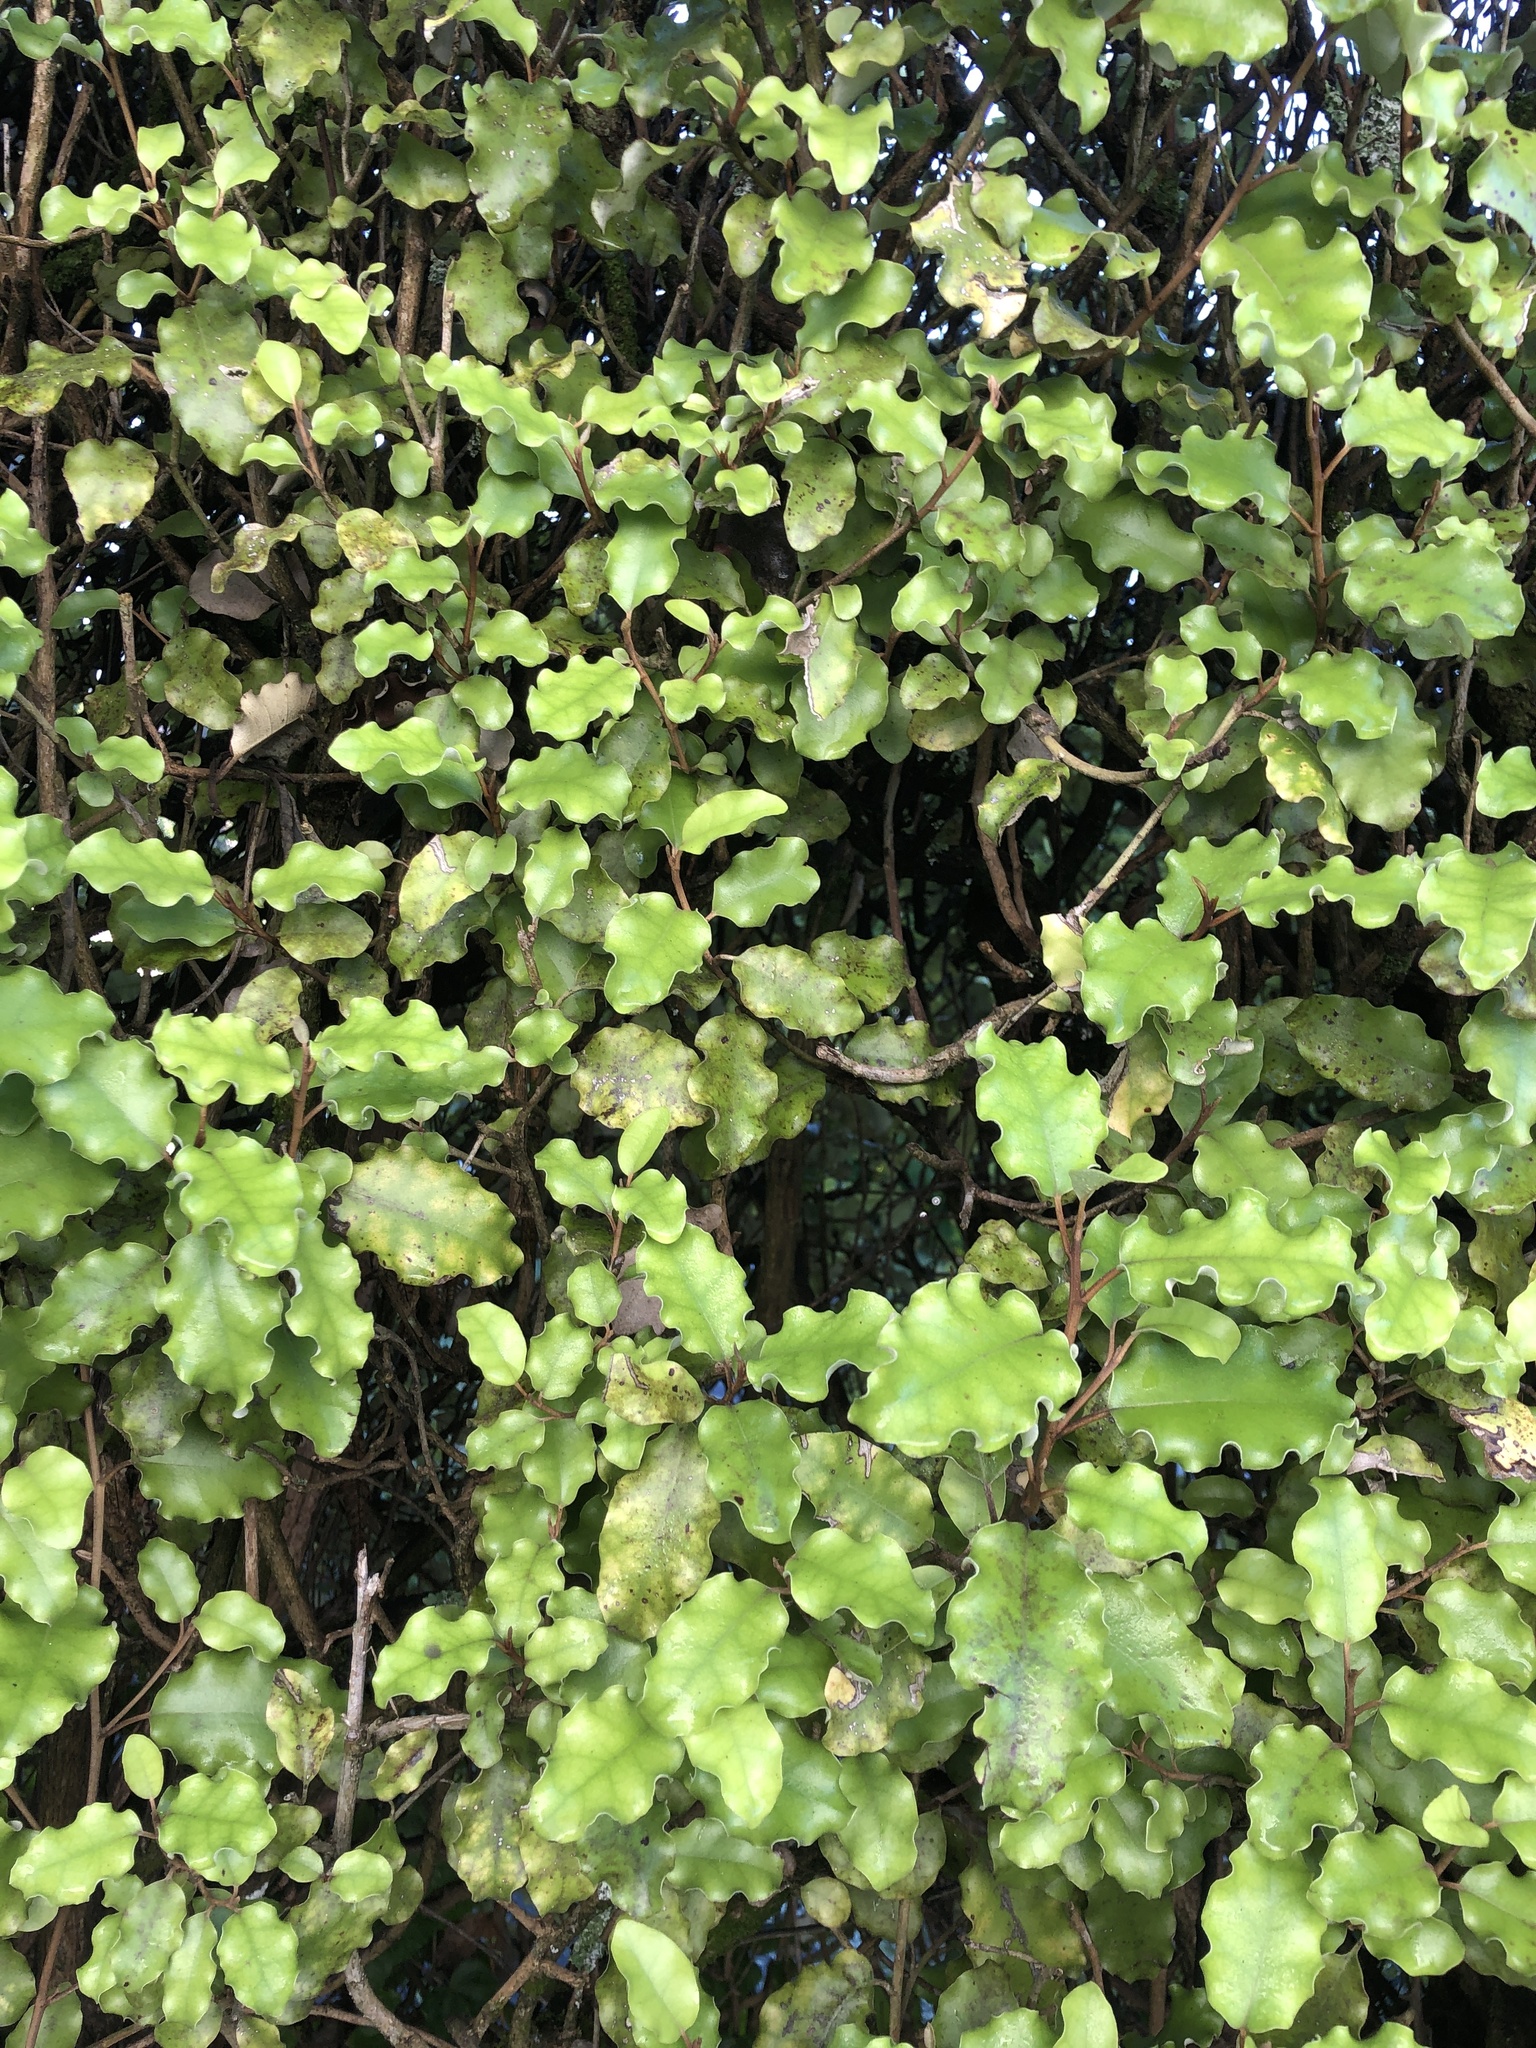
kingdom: Plantae
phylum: Tracheophyta
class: Magnoliopsida
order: Asterales
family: Asteraceae
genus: Olearia
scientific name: Olearia paniculata
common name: Akiraho
